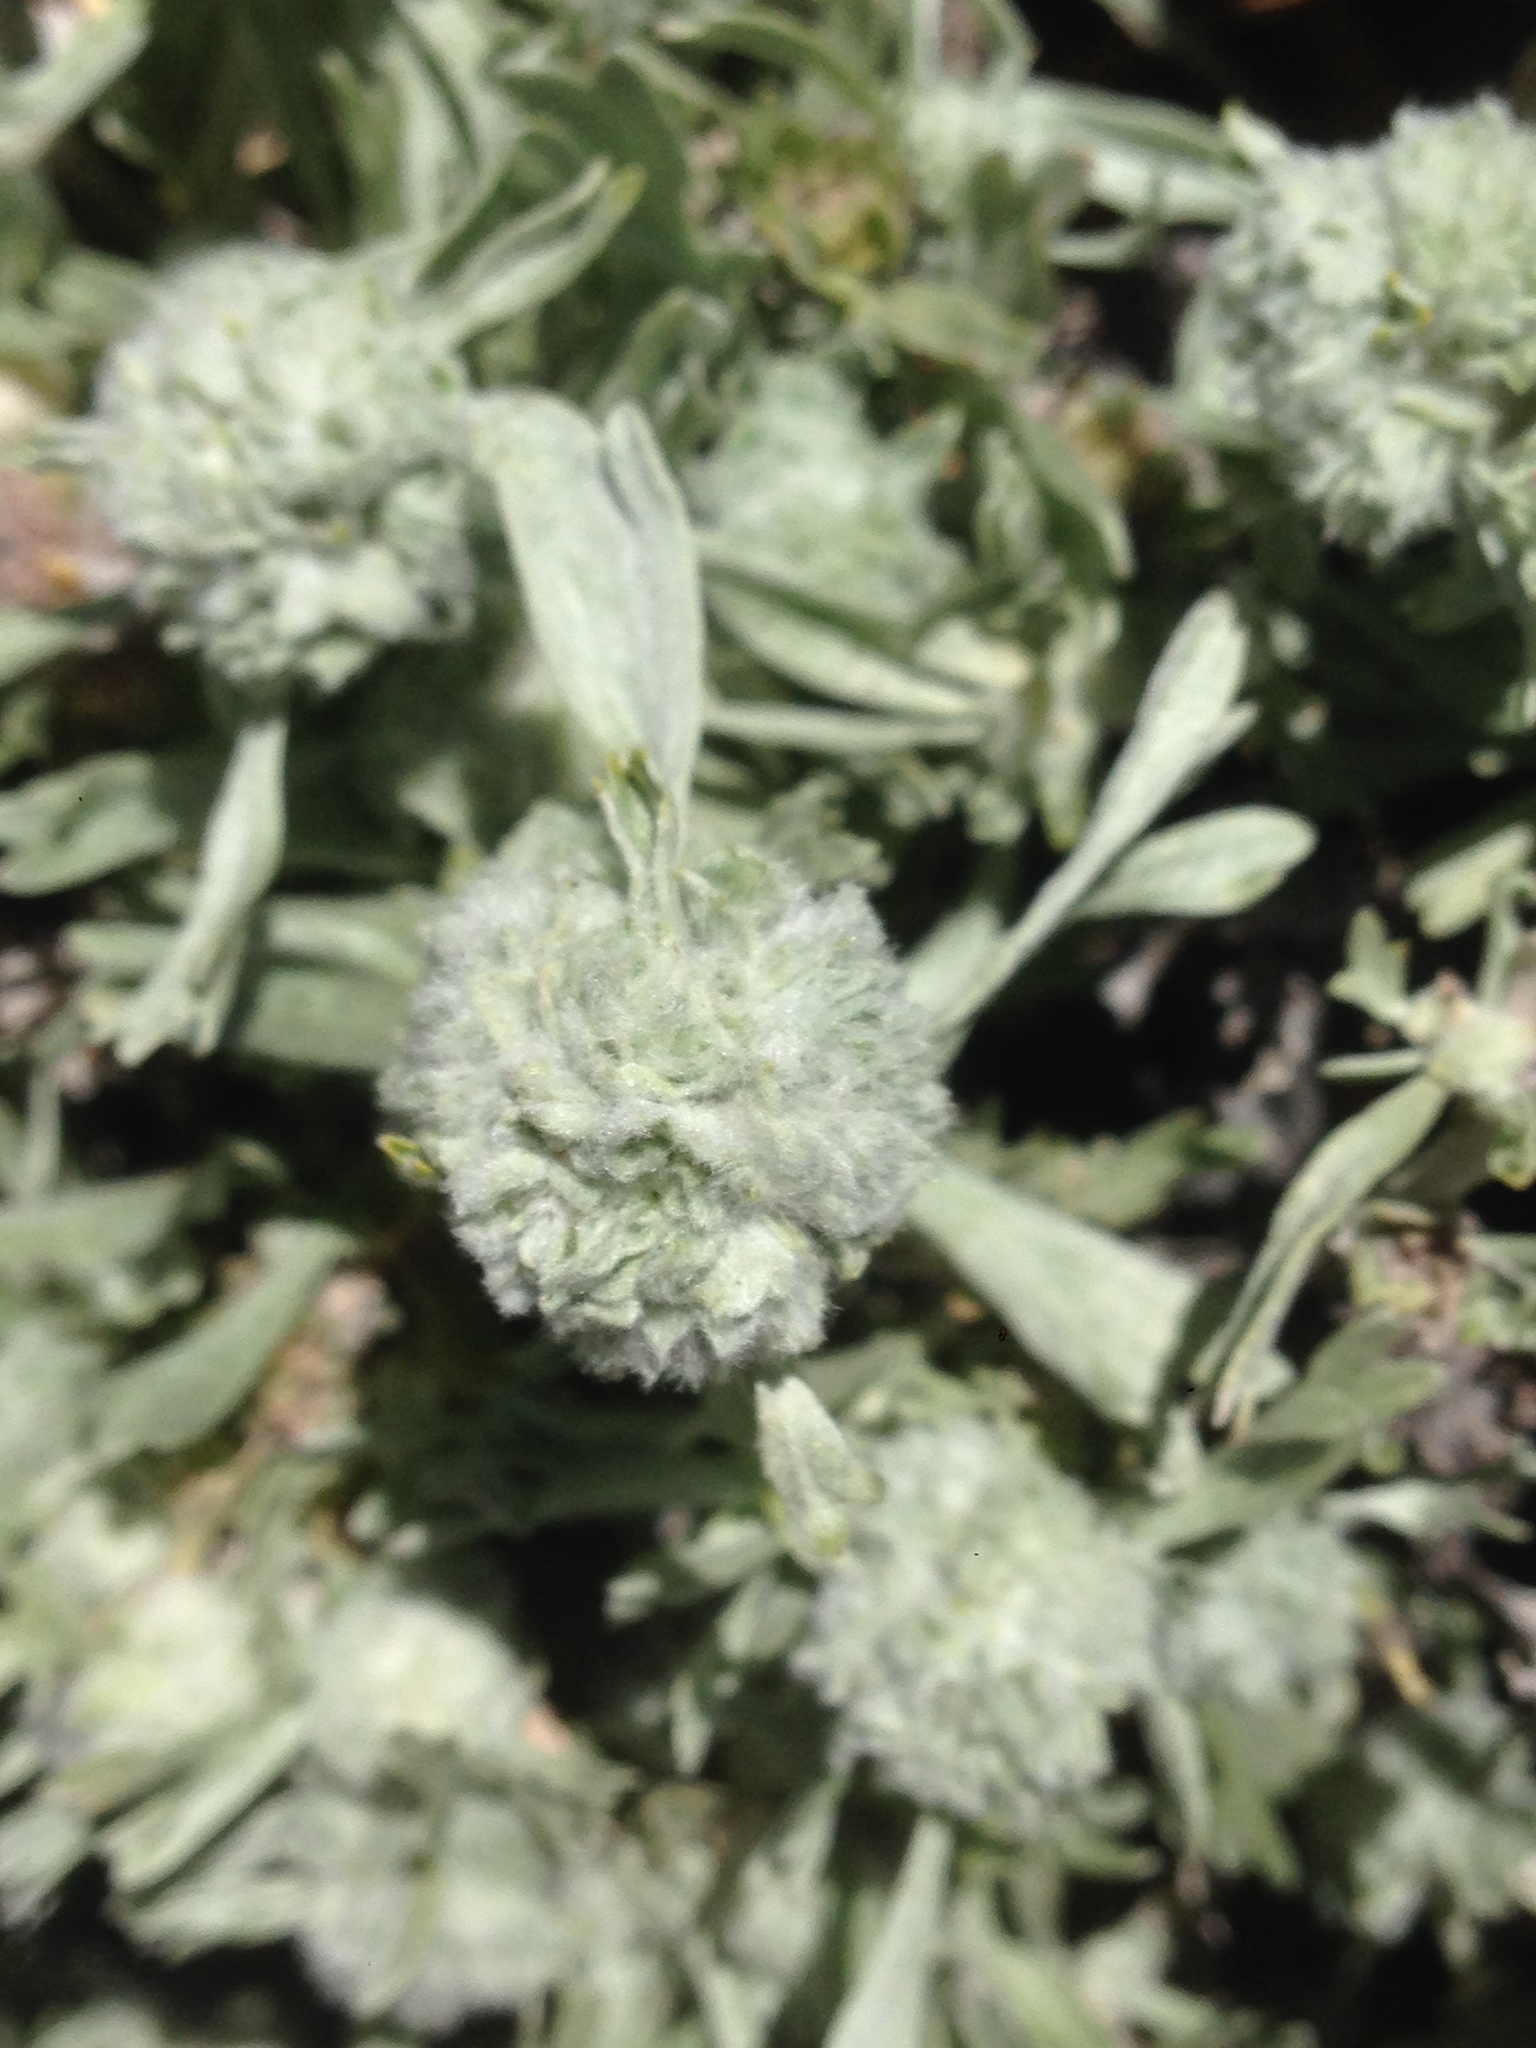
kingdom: Animalia
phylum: Arthropoda
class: Insecta
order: Diptera
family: Cecidomyiidae
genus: Rhopalomyia
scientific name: Rhopalomyia medusirrasa
